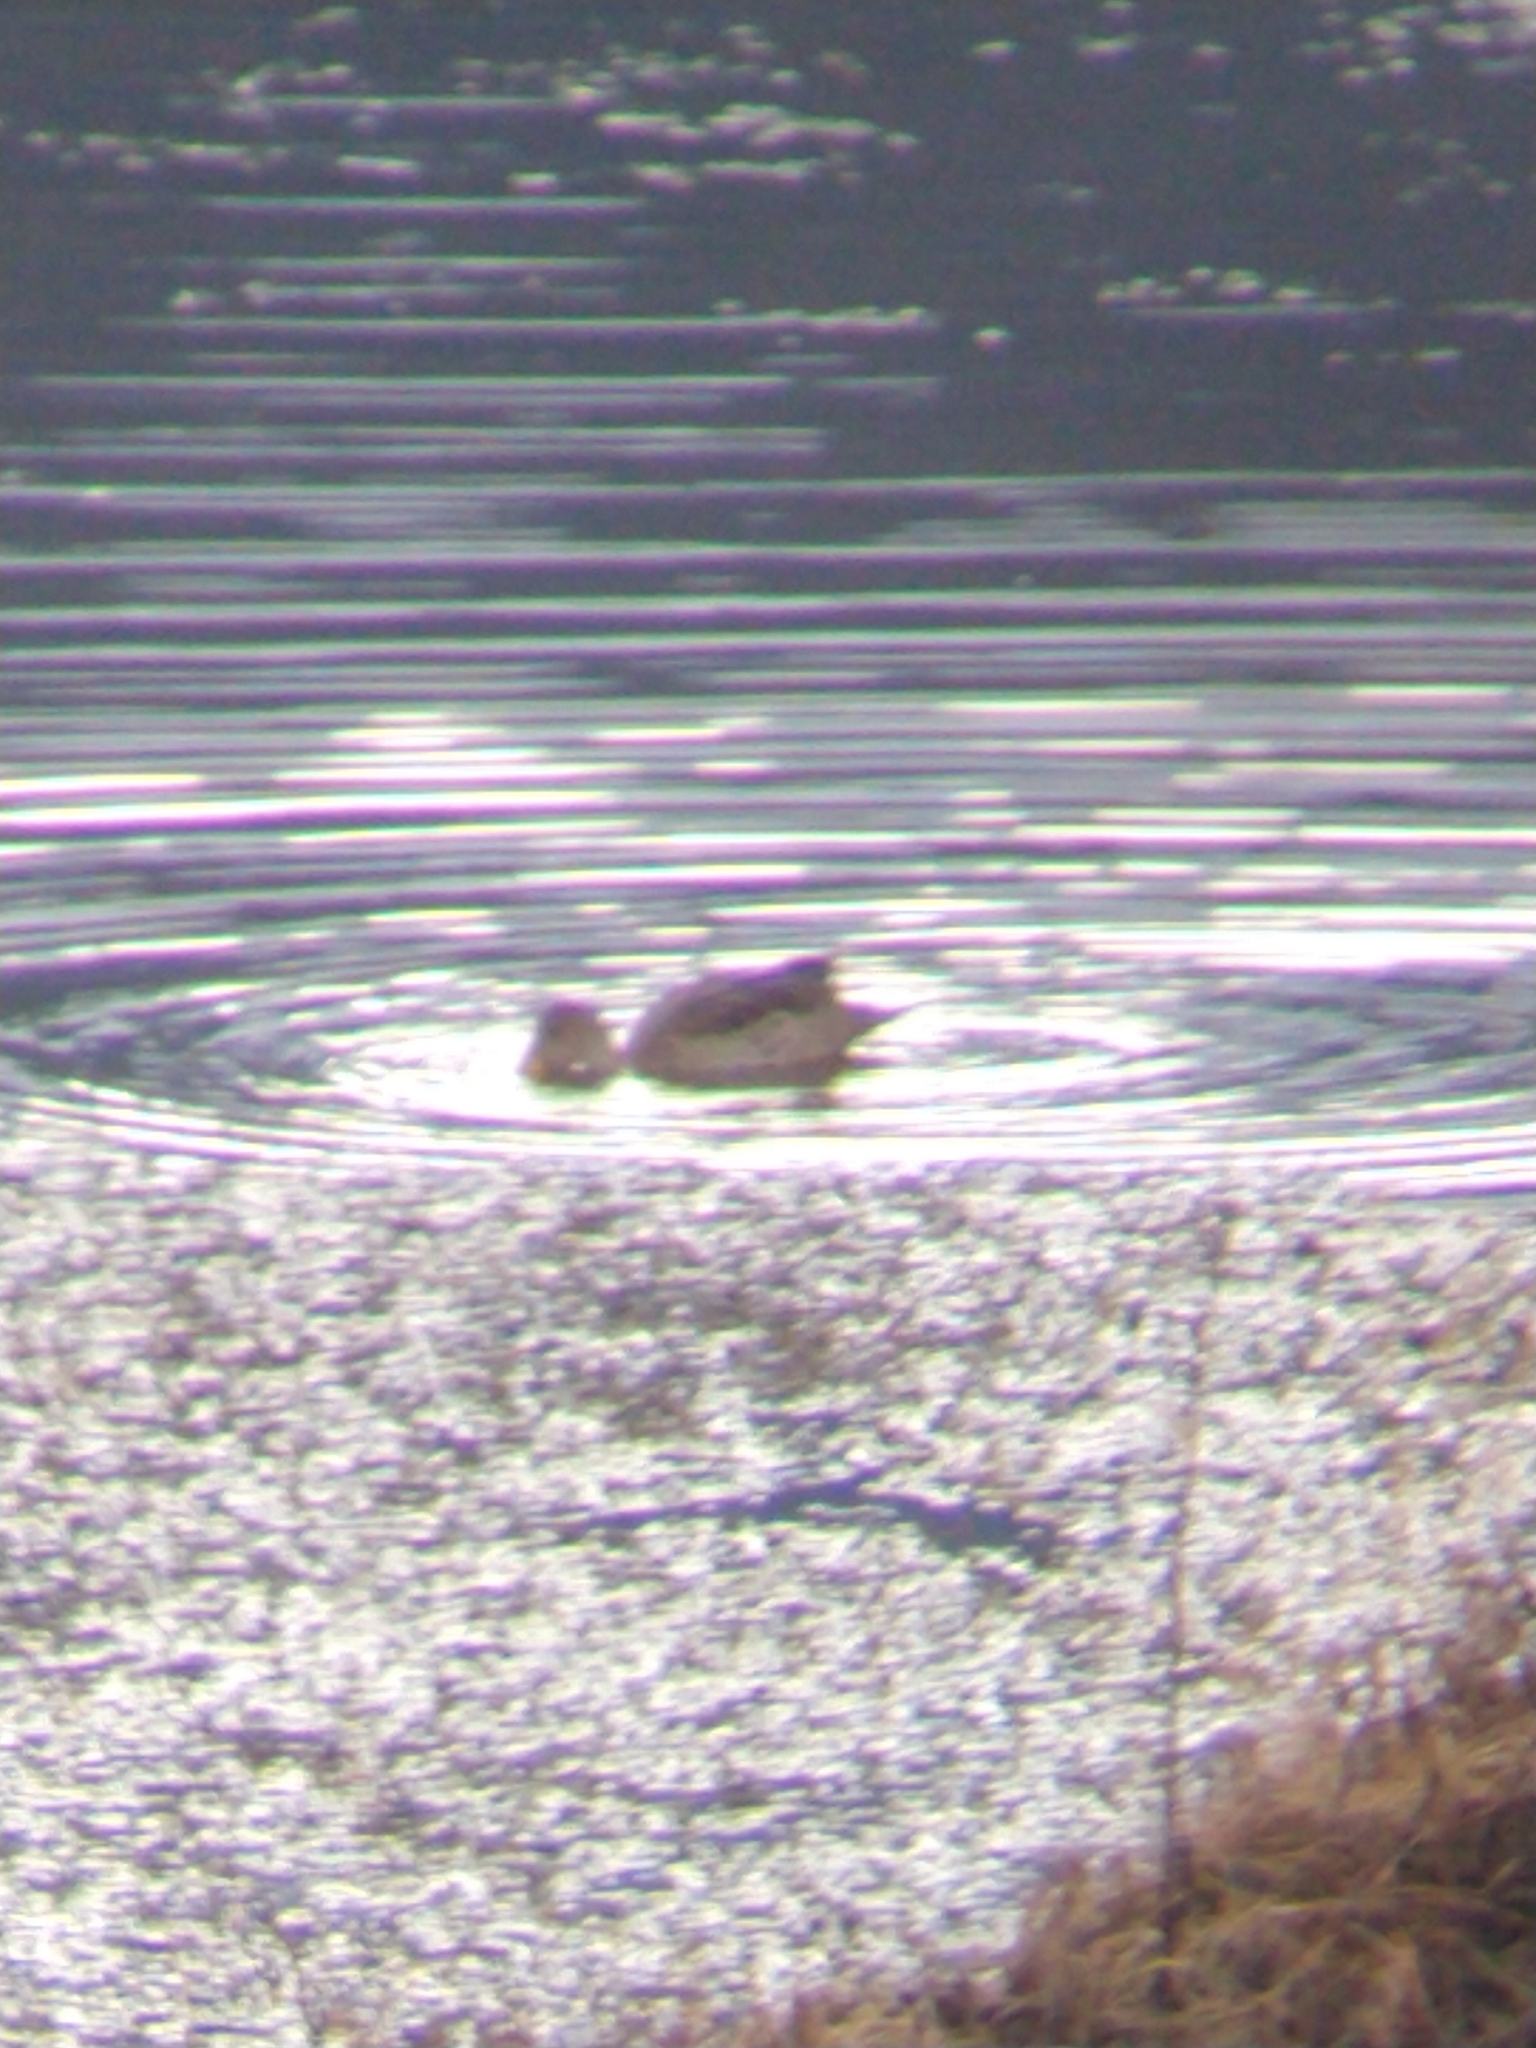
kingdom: Animalia
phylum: Chordata
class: Aves
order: Anseriformes
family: Anatidae
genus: Anas
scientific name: Anas georgica
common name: Yellow-billed pintail
